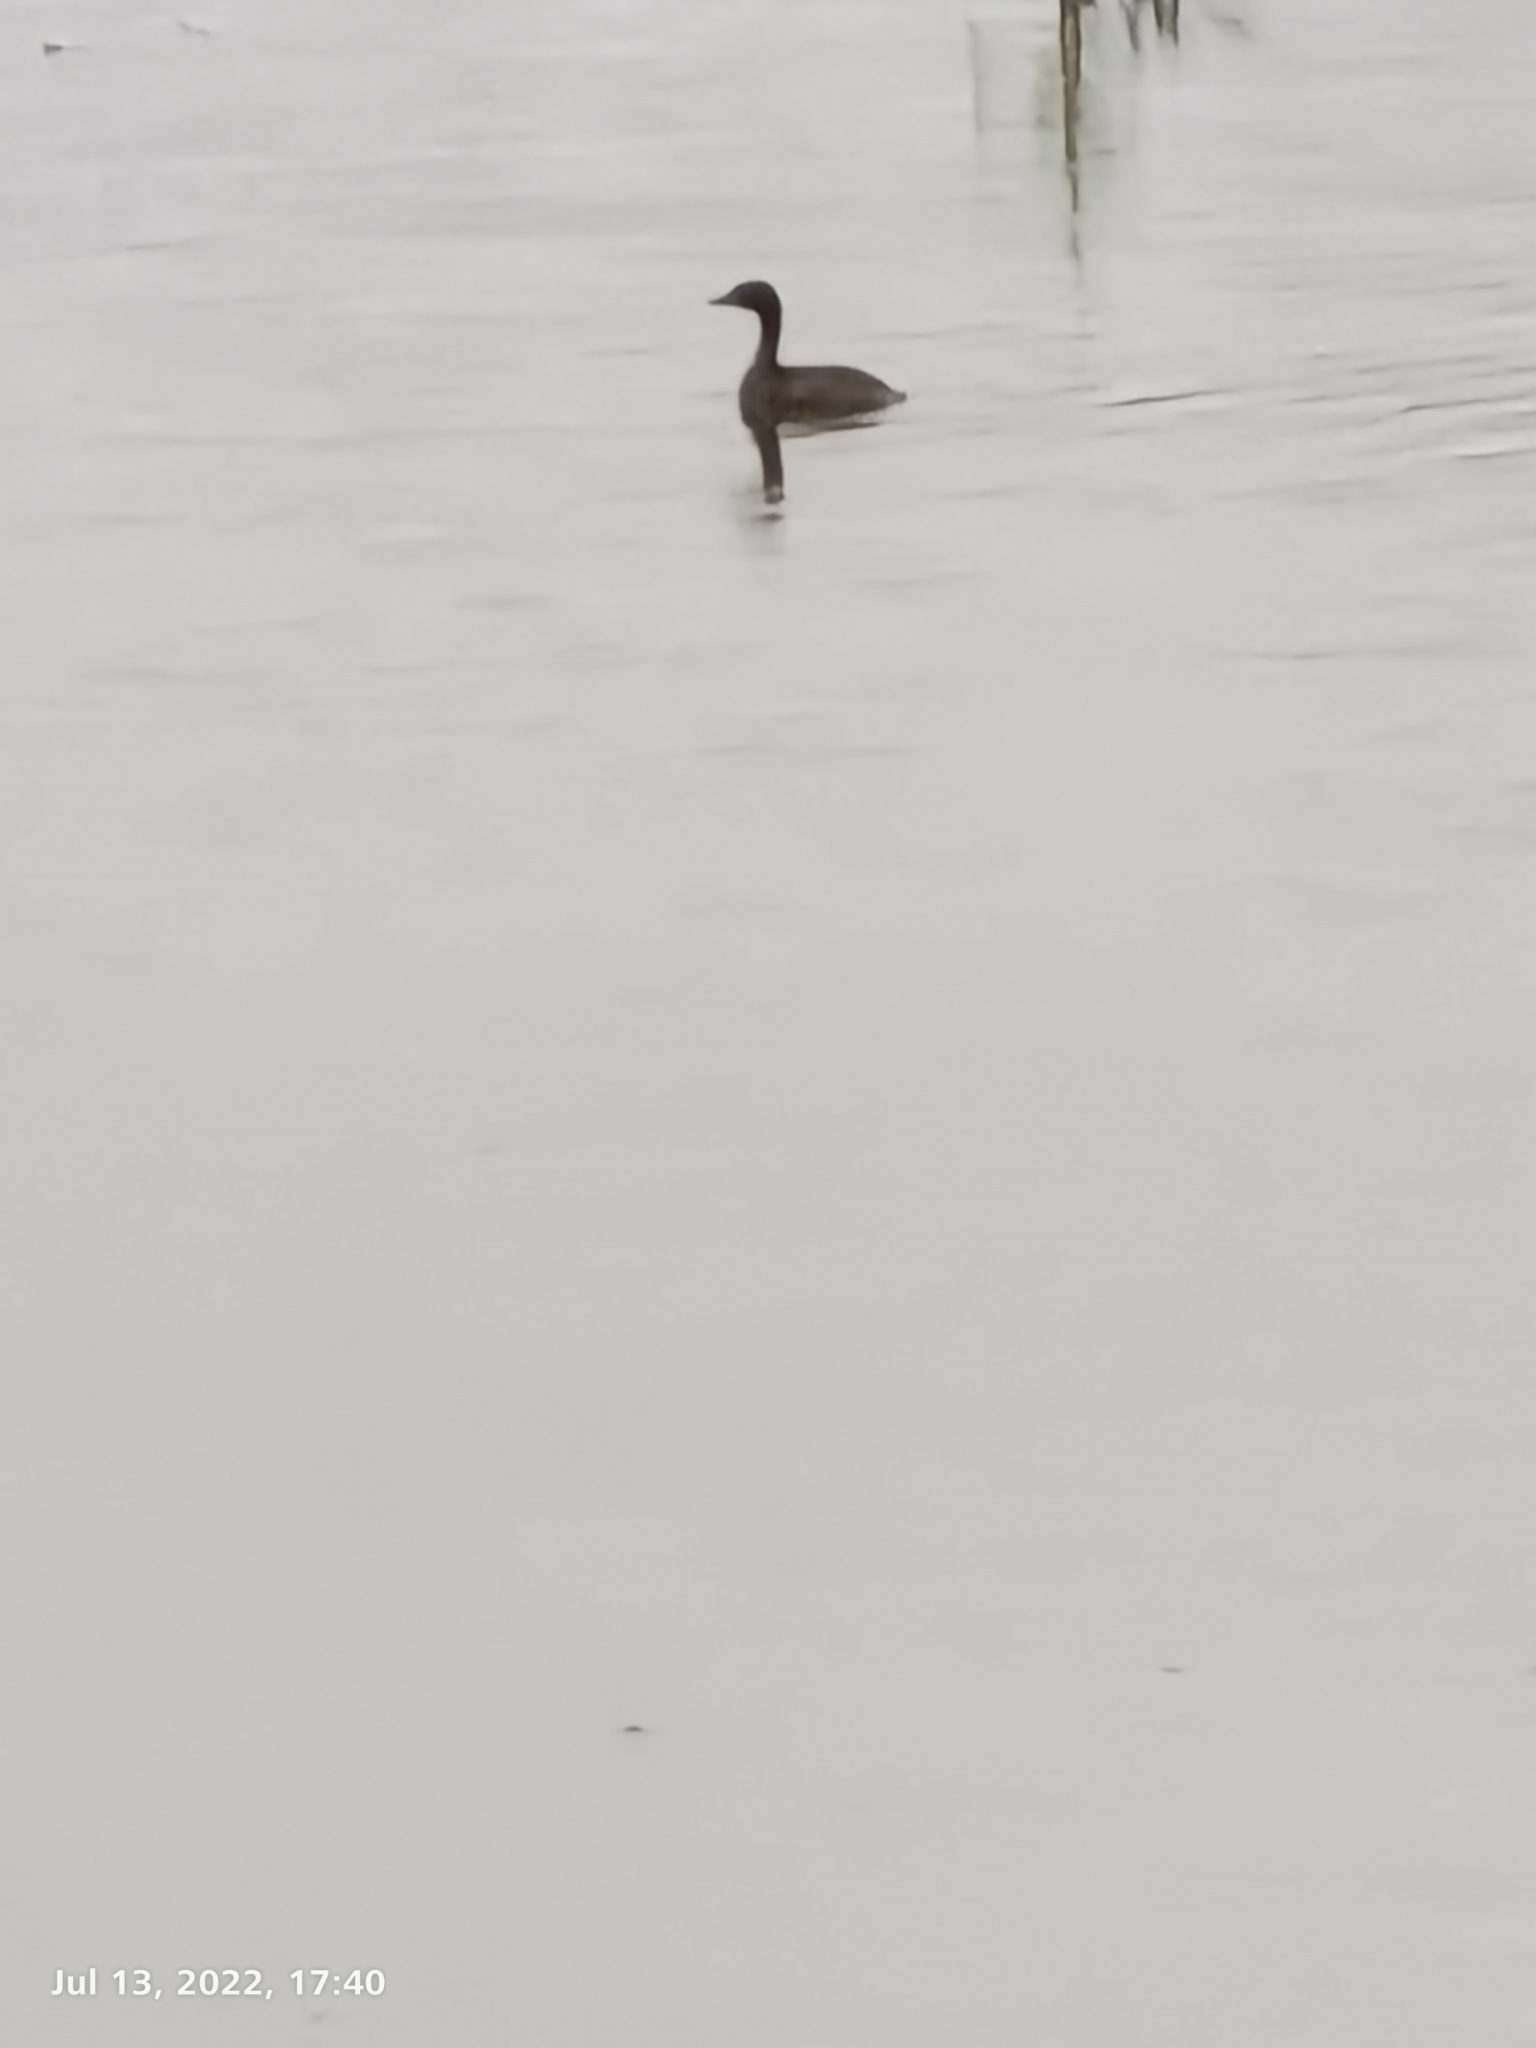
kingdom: Animalia
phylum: Chordata
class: Aves
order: Podicipediformes
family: Podicipedidae
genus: Tachybaptus
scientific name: Tachybaptus ruficollis
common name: Little grebe
